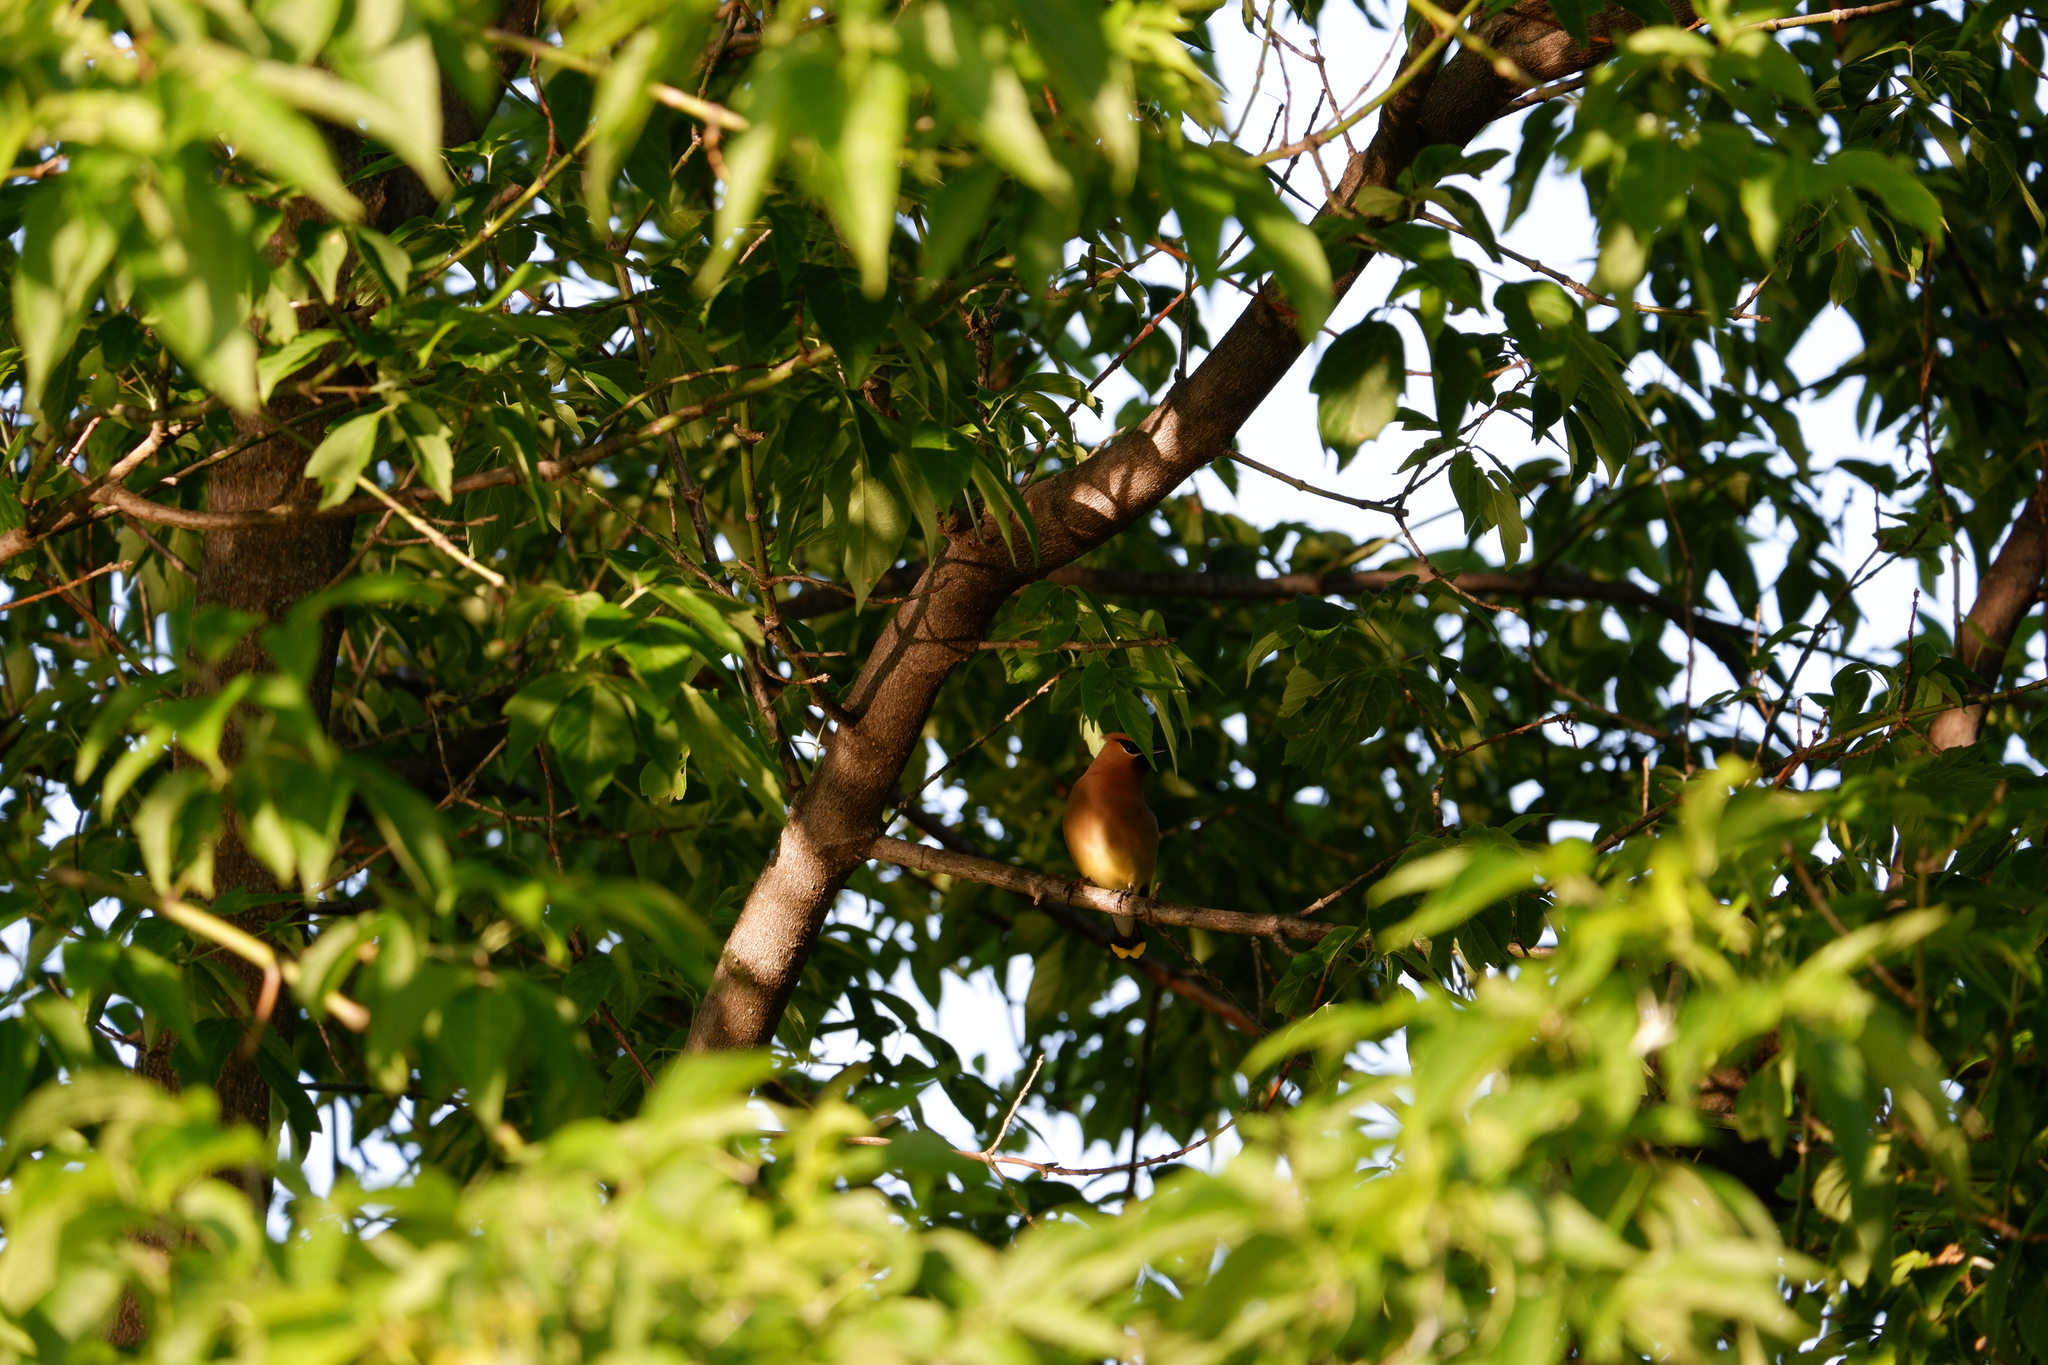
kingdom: Animalia
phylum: Chordata
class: Aves
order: Passeriformes
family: Bombycillidae
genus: Bombycilla
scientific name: Bombycilla cedrorum
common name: Cedar waxwing
